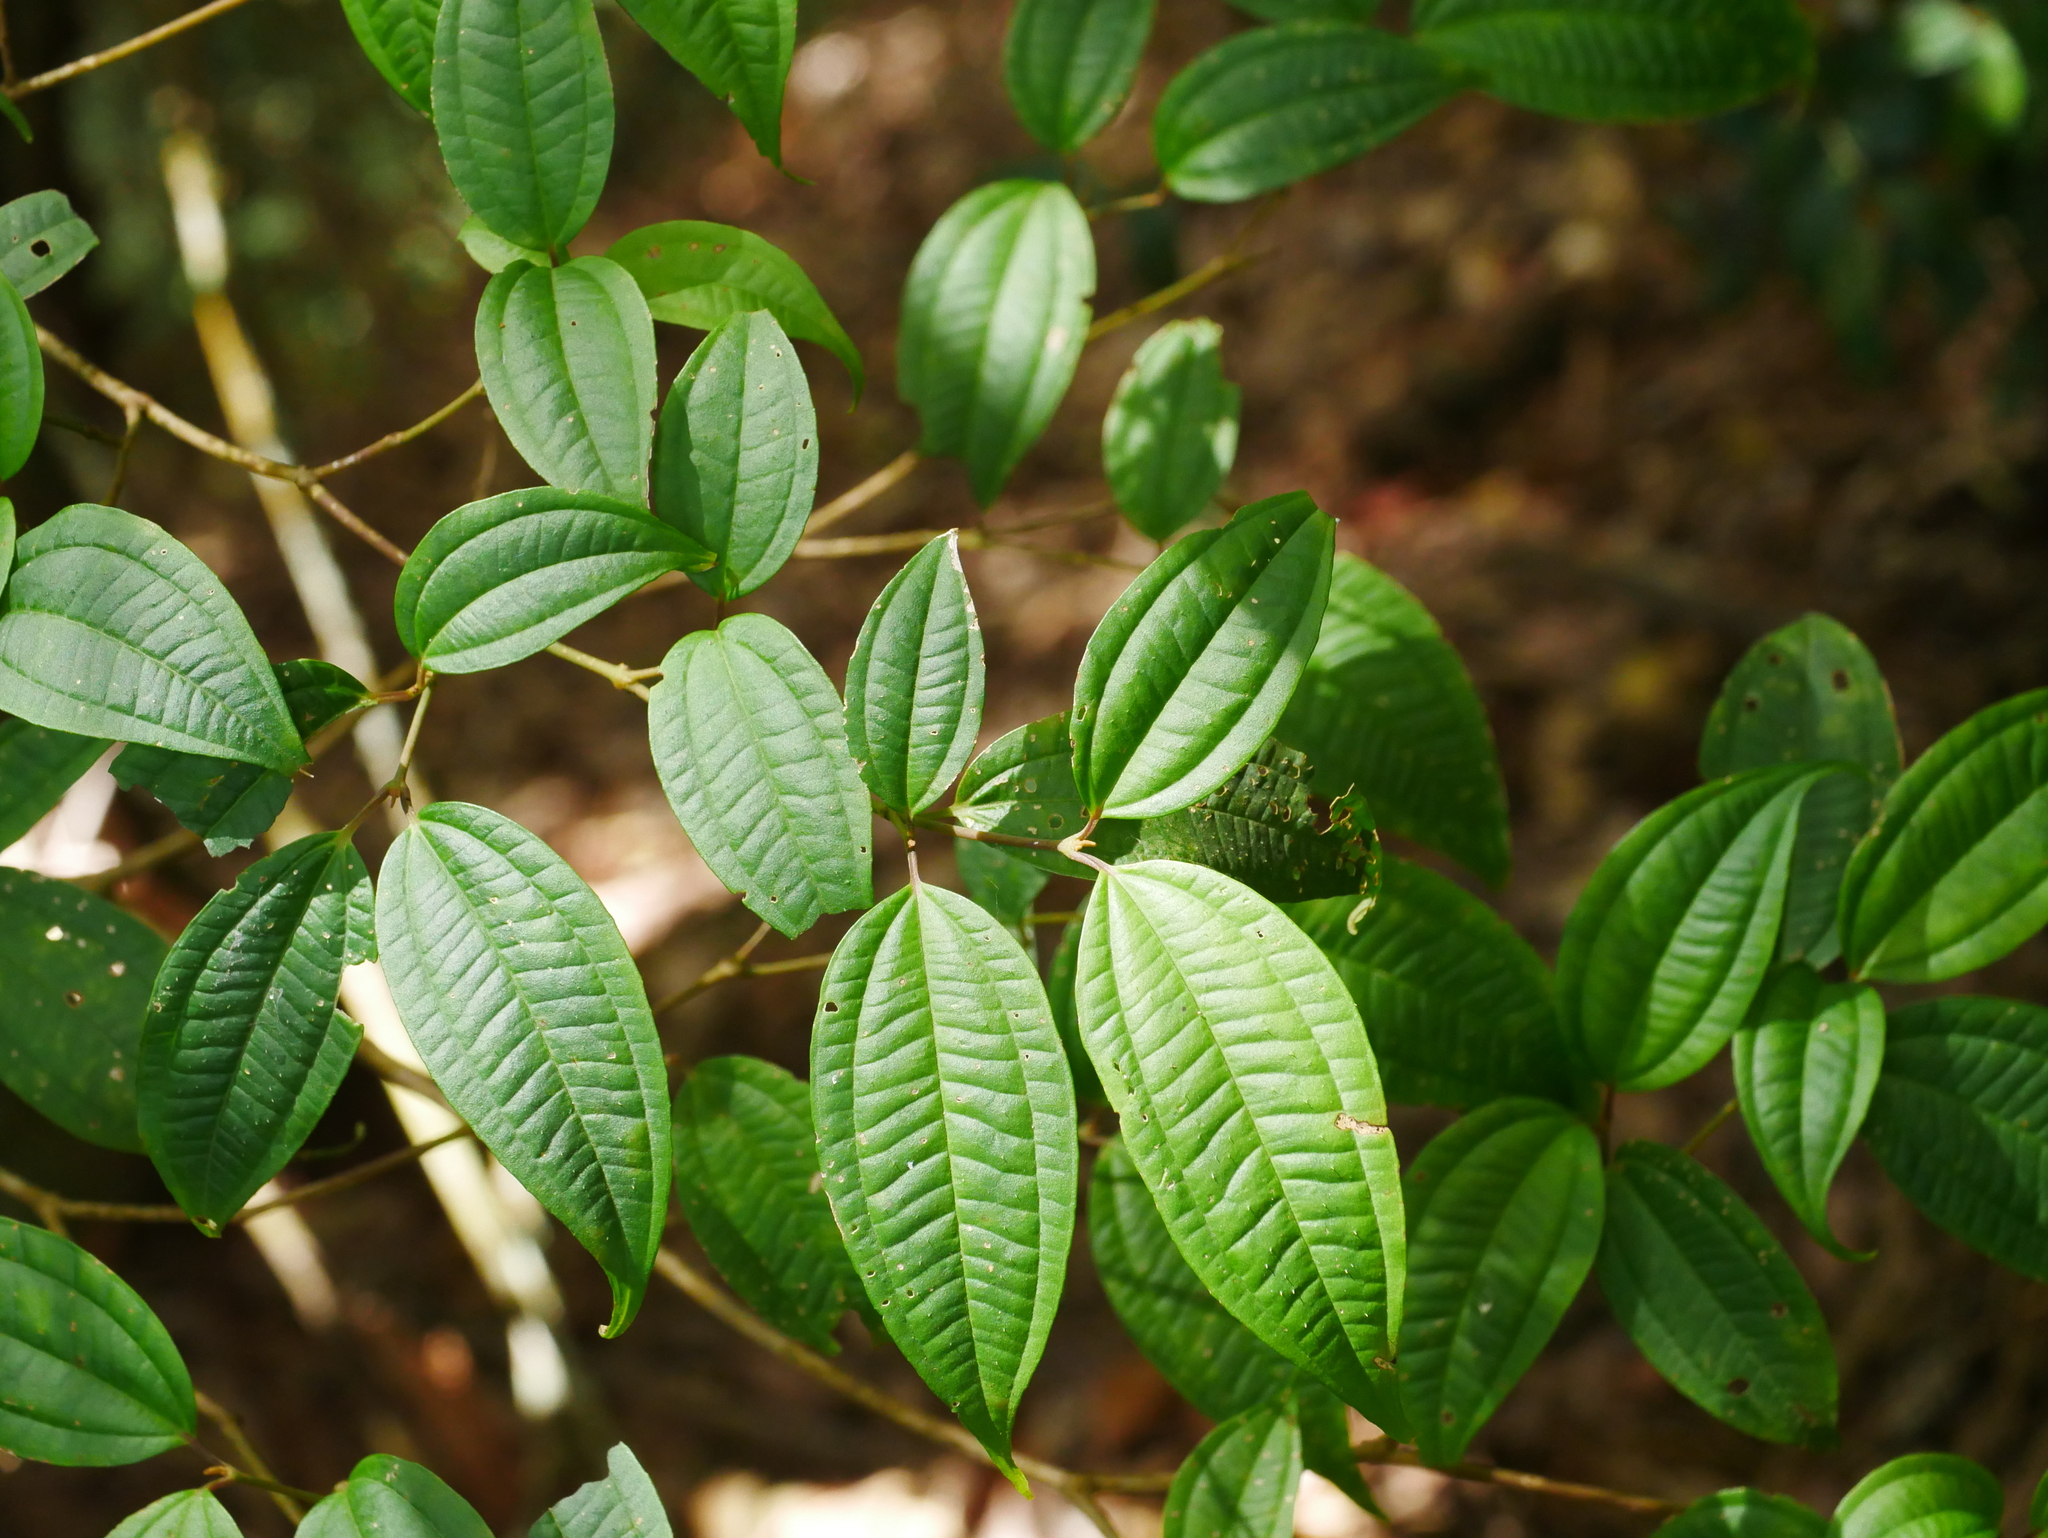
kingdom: Plantae
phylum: Tracheophyta
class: Magnoliopsida
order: Myrtales
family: Melastomataceae
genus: Barthea
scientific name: Barthea barthei
